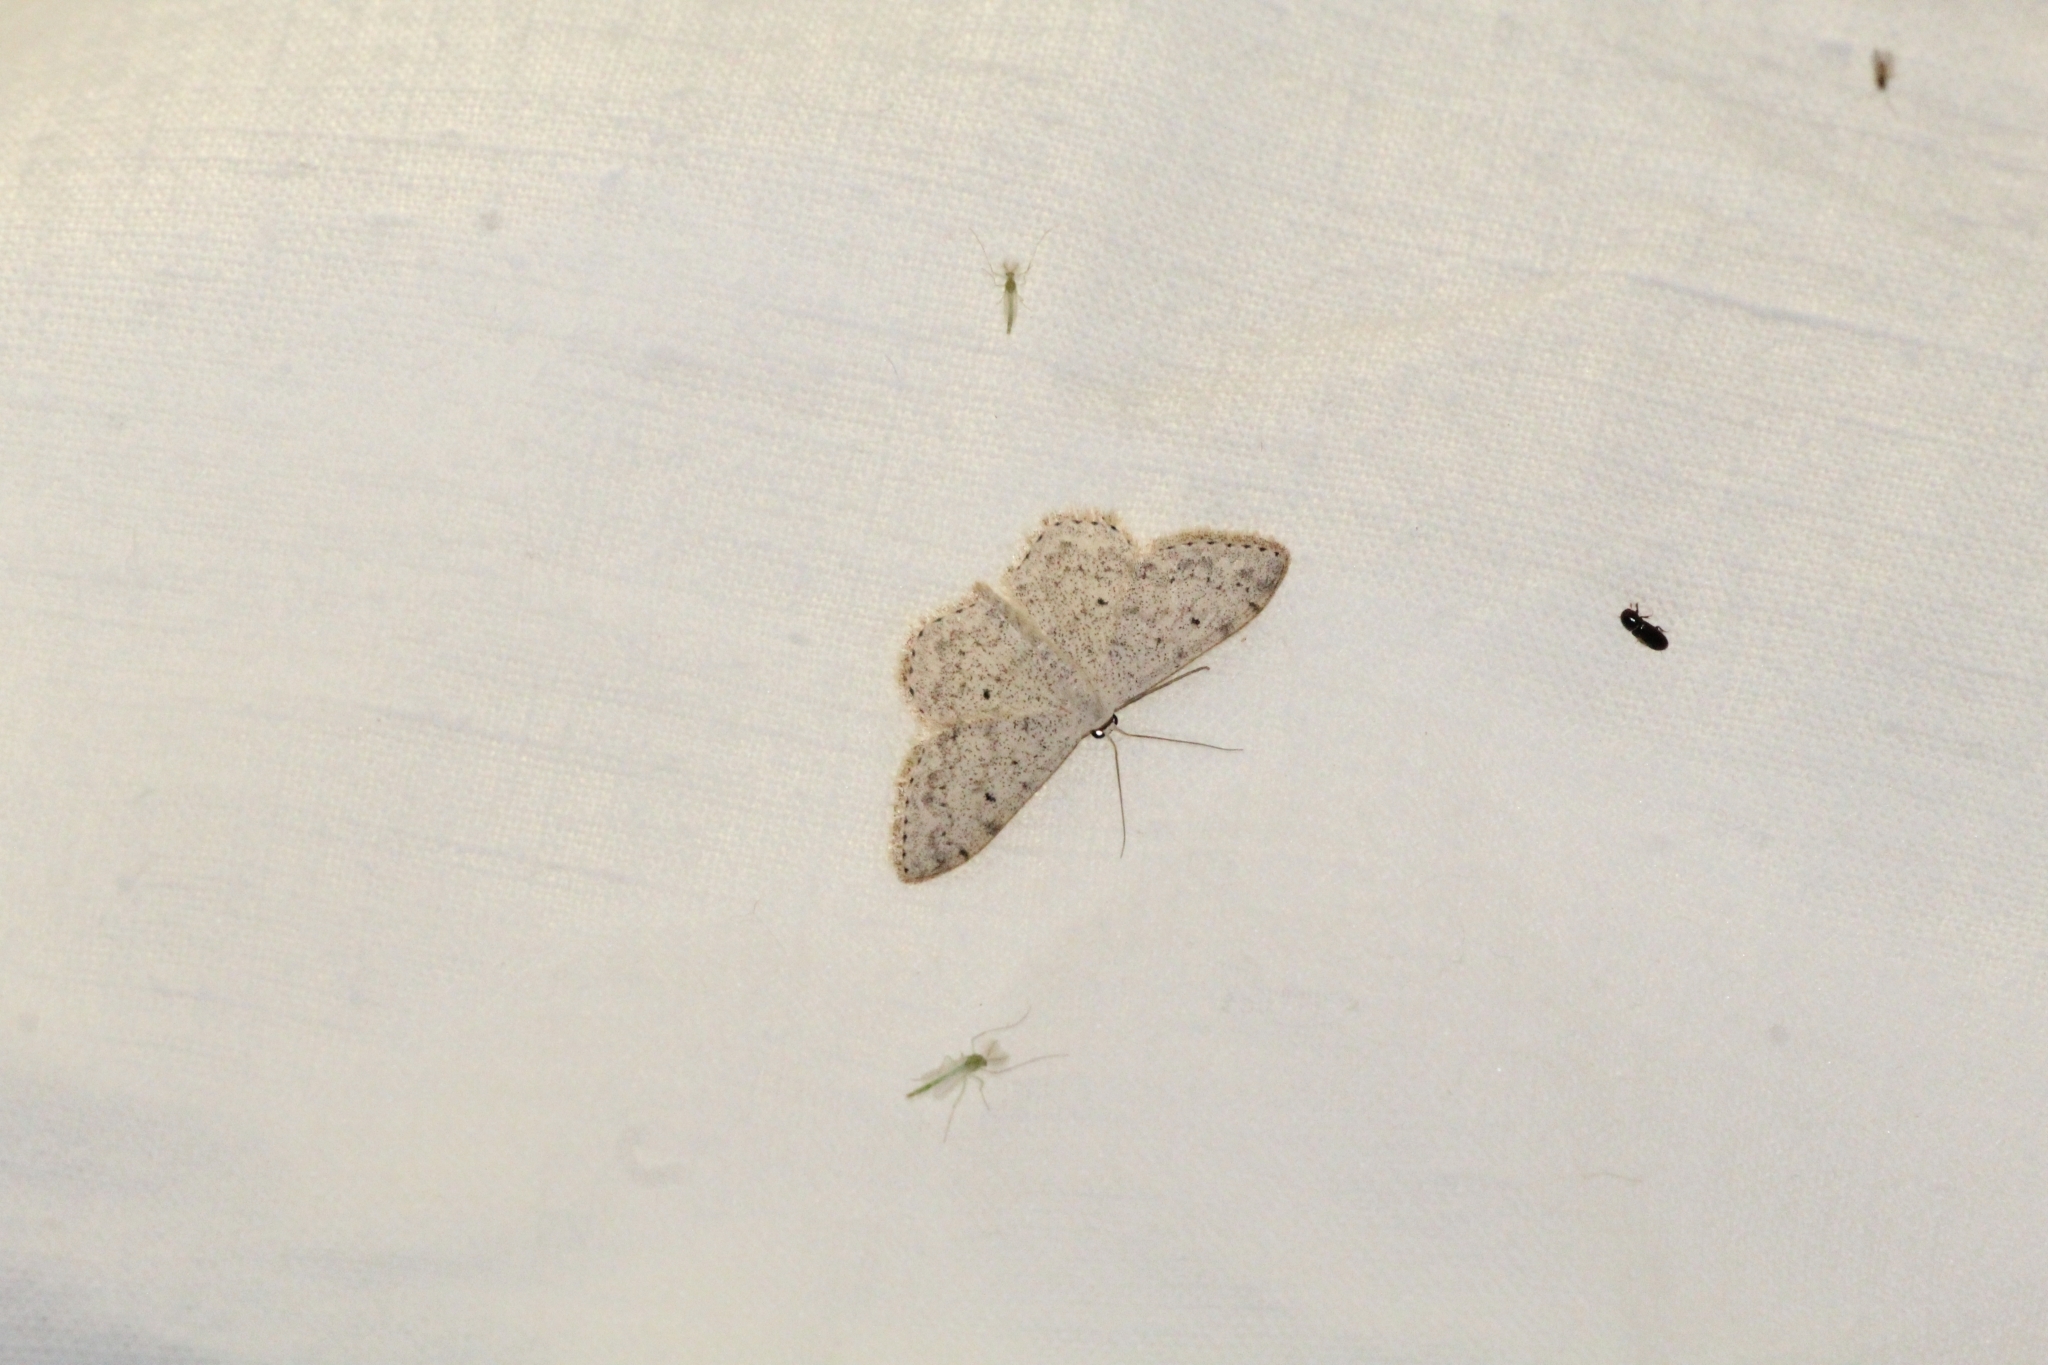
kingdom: Animalia
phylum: Arthropoda
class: Insecta
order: Lepidoptera
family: Geometridae
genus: Scopula
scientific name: Scopula marginepunctata
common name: Mullein wave
